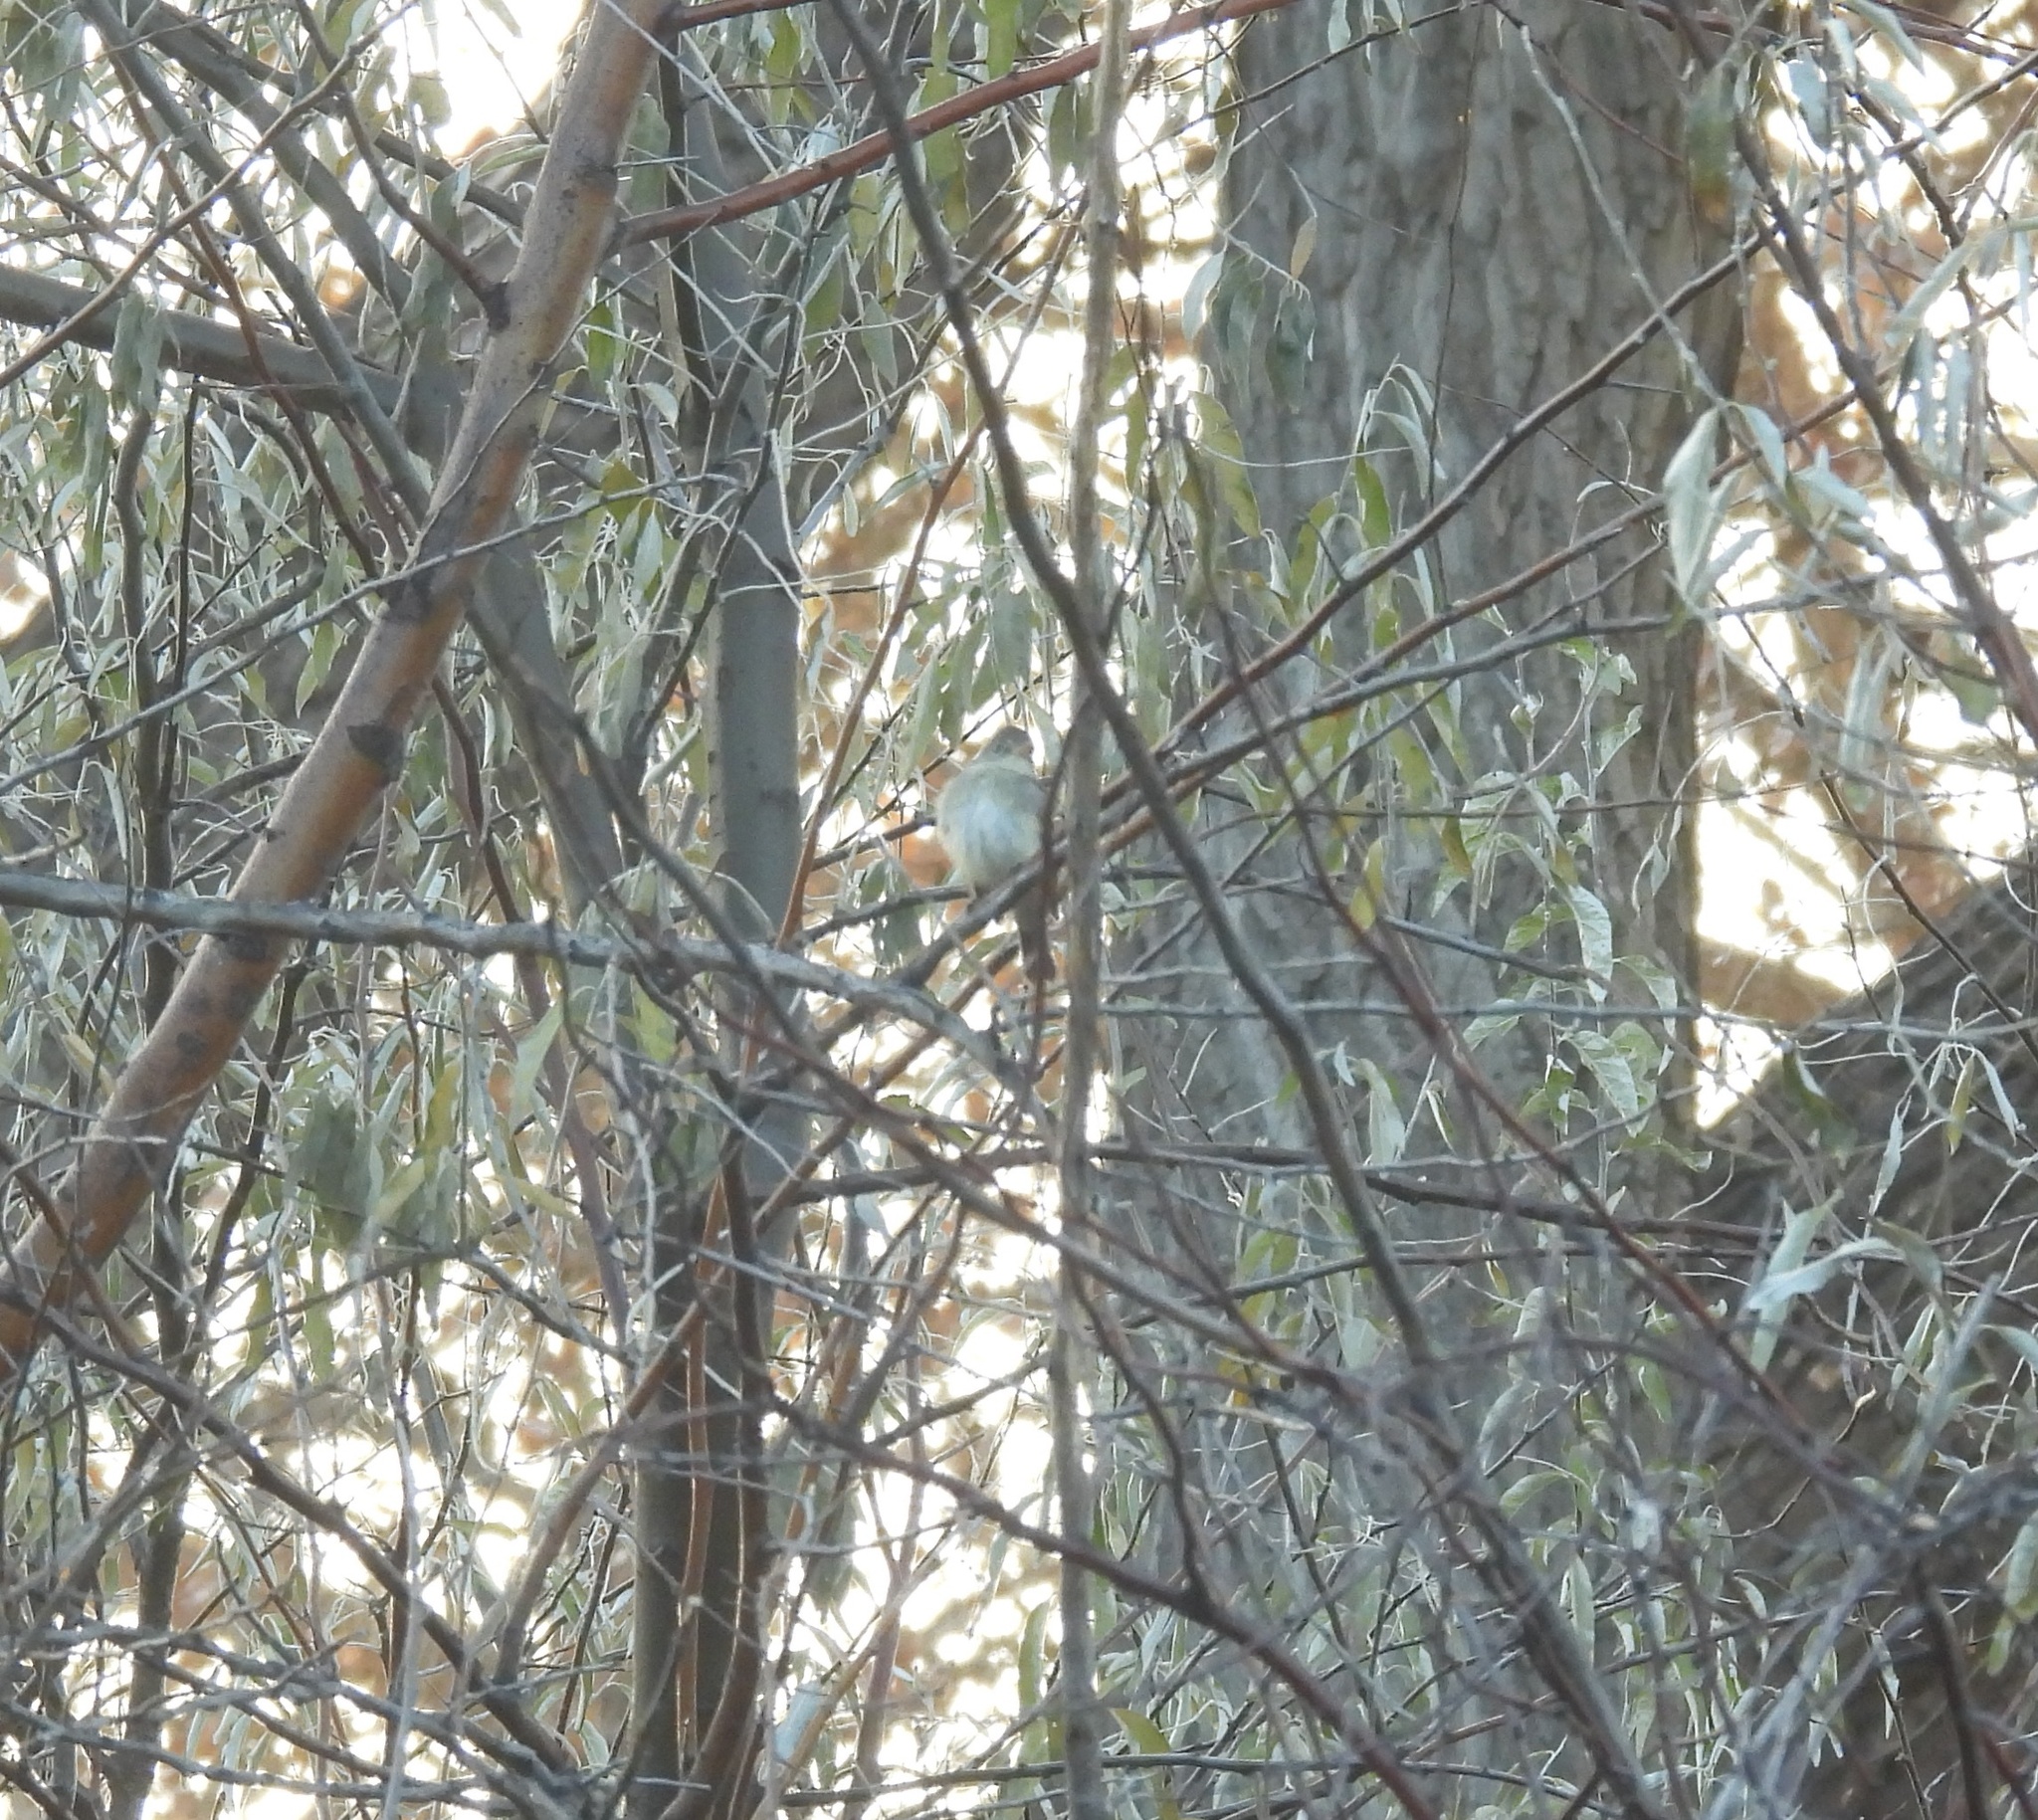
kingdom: Animalia
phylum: Chordata
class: Aves
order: Passeriformes
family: Tyrannidae
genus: Empidonax
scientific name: Empidonax traillii
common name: Willow flycatcher
